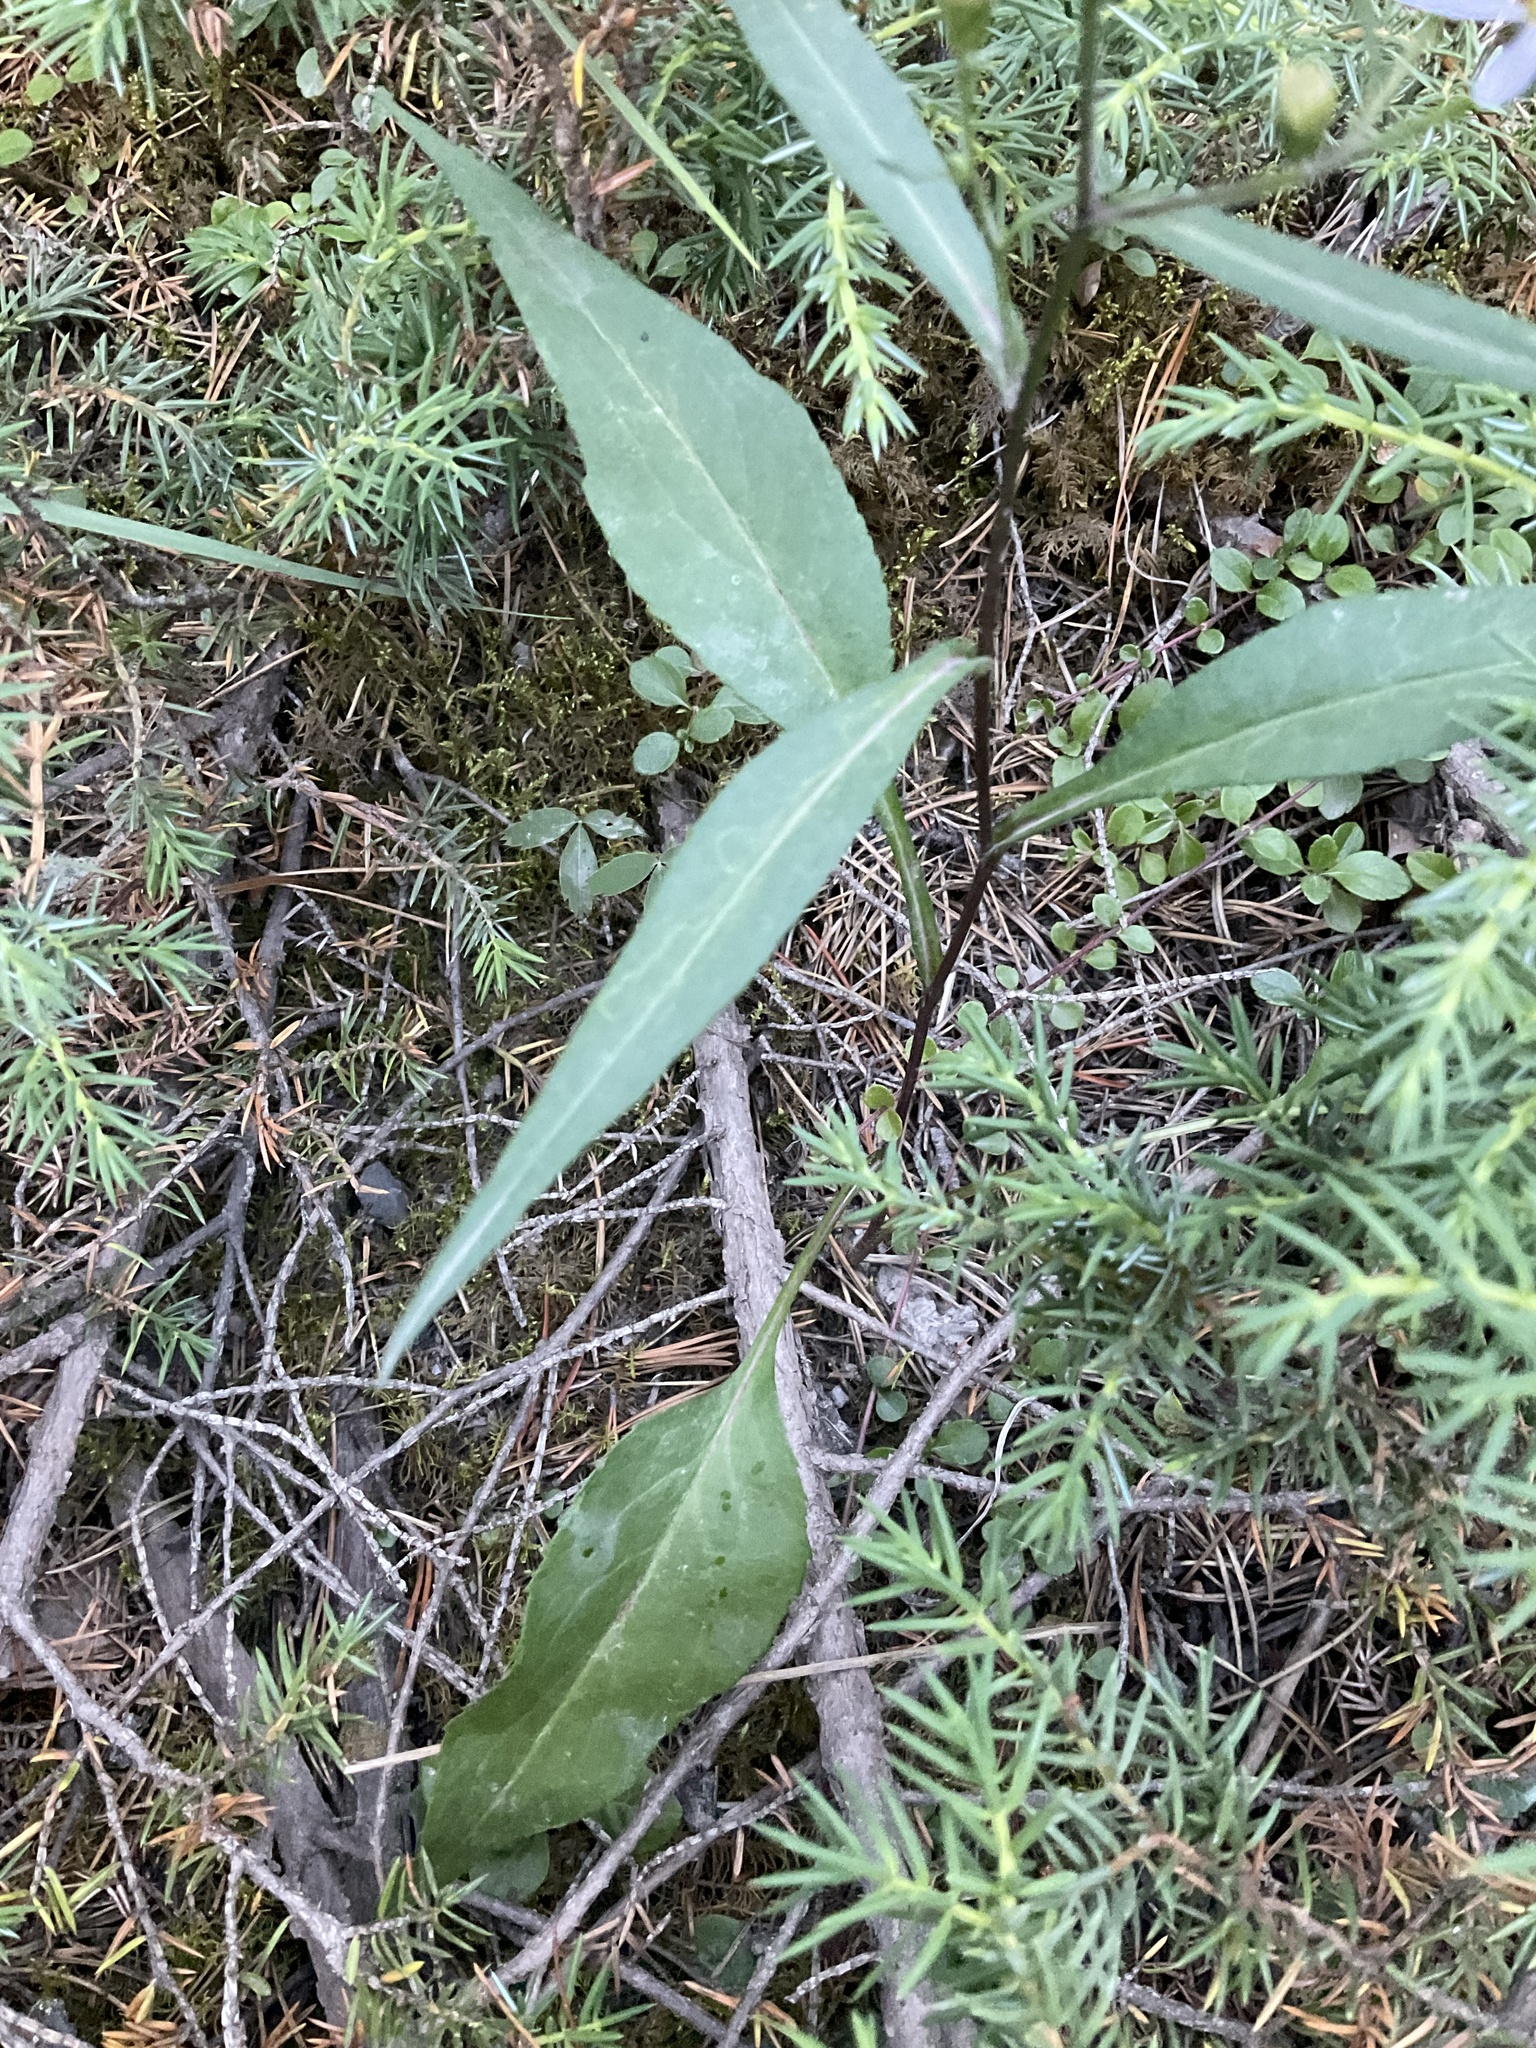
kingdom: Plantae
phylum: Tracheophyta
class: Magnoliopsida
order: Asterales
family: Asteraceae
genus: Symphyotrichum
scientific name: Symphyotrichum ciliolatum
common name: Fringed blue aster
